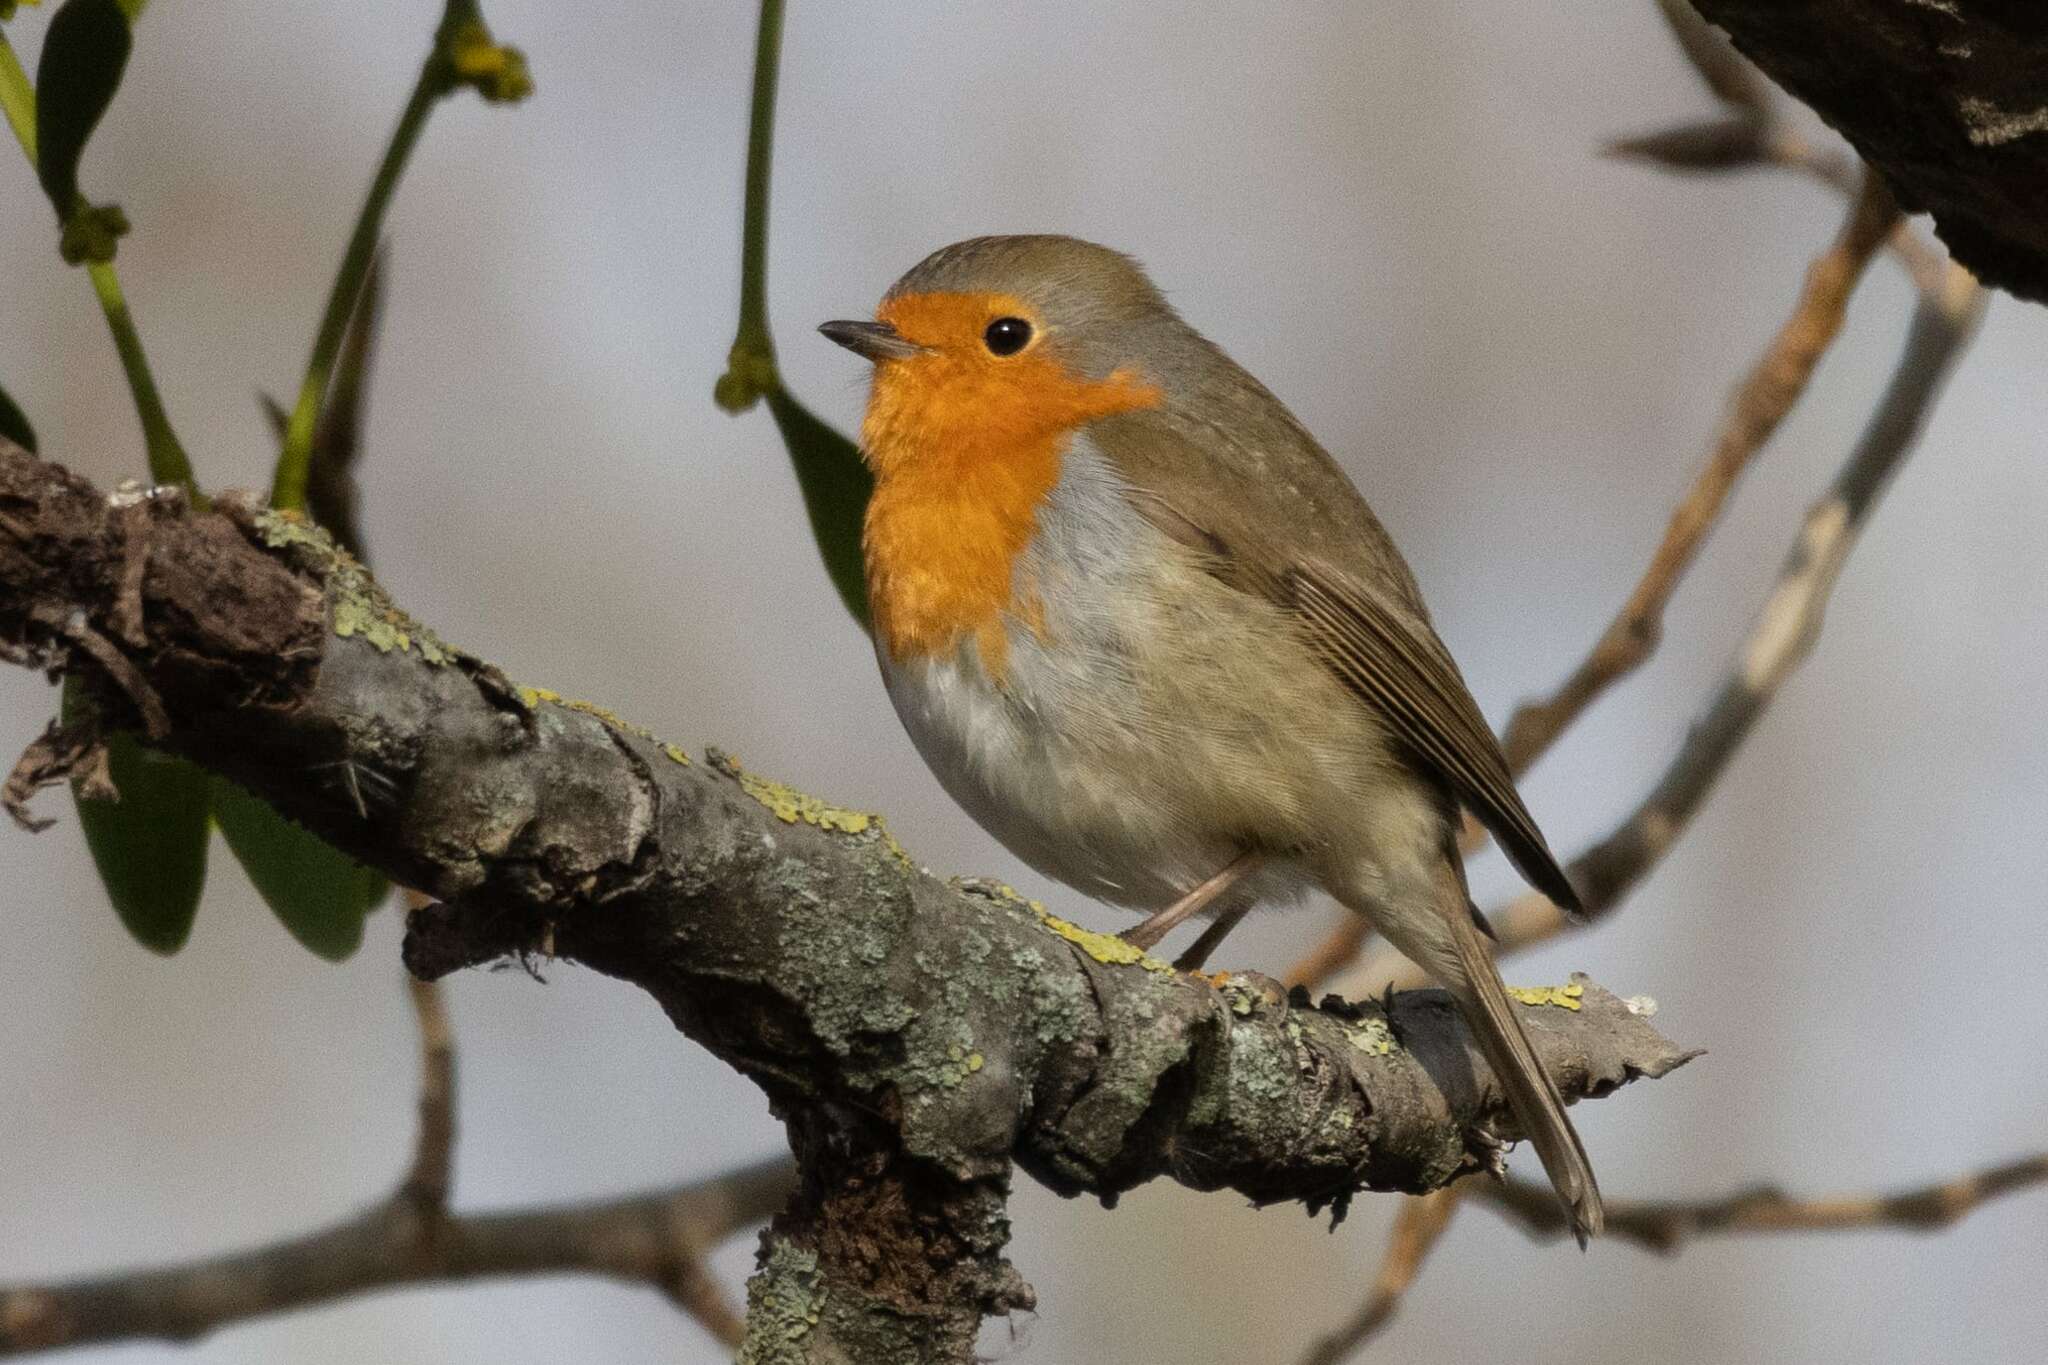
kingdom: Animalia
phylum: Chordata
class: Aves
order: Passeriformes
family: Muscicapidae
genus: Erithacus
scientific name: Erithacus rubecula
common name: European robin
